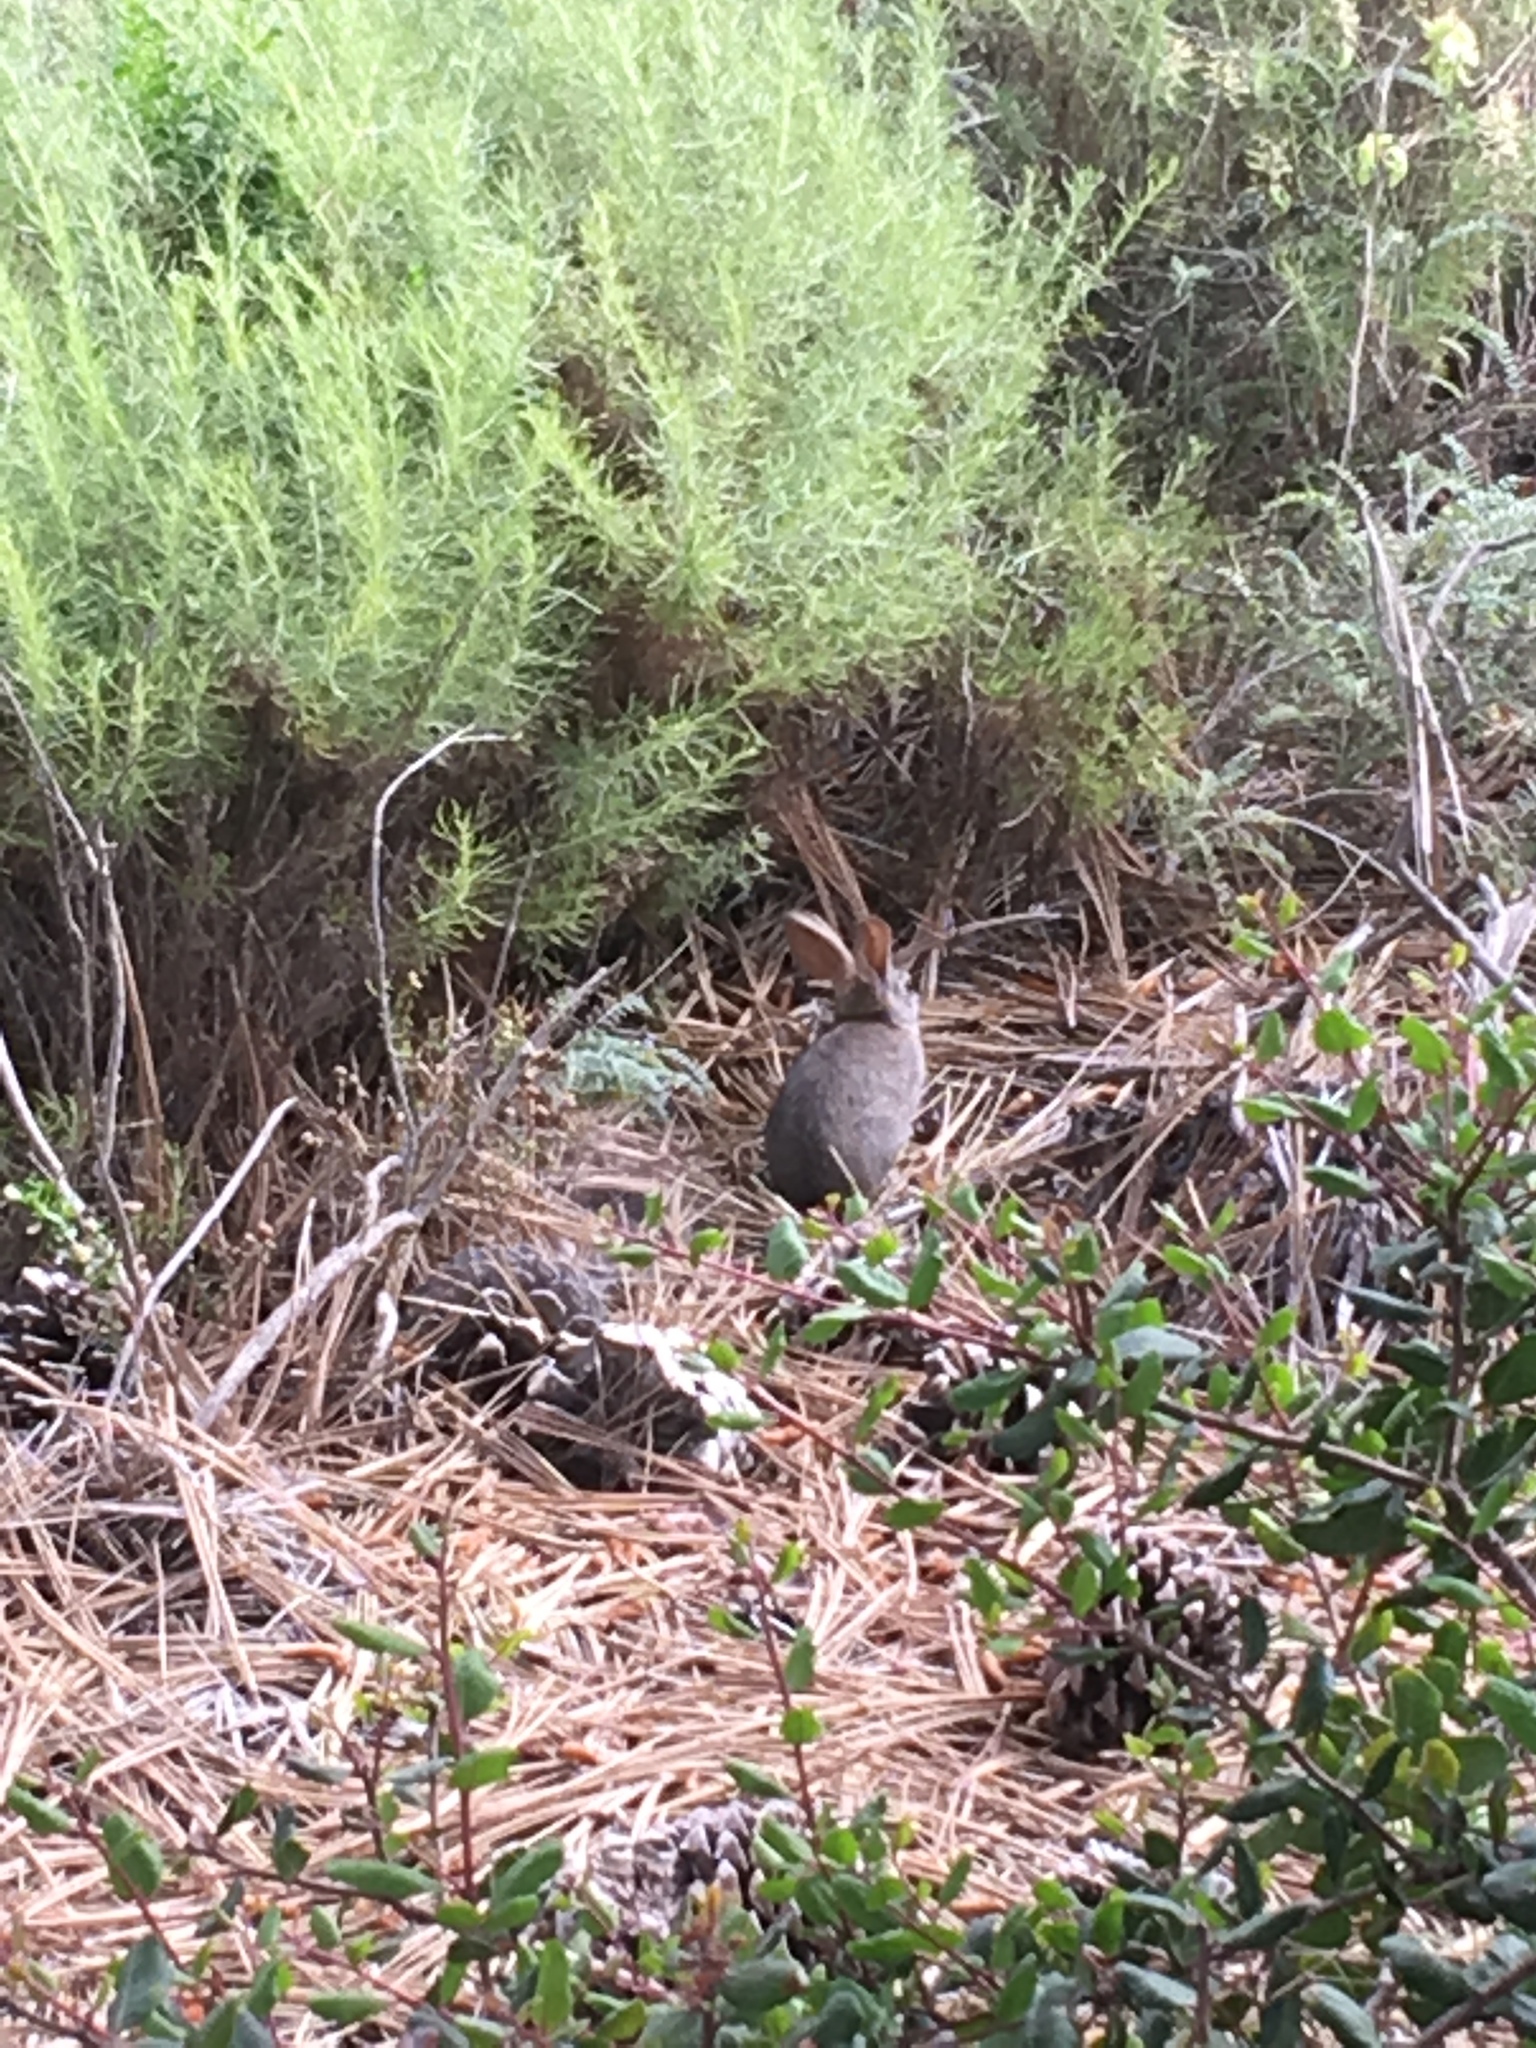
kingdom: Animalia
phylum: Chordata
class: Mammalia
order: Lagomorpha
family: Leporidae
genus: Sylvilagus
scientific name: Sylvilagus bachmani
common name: Brush rabbit
